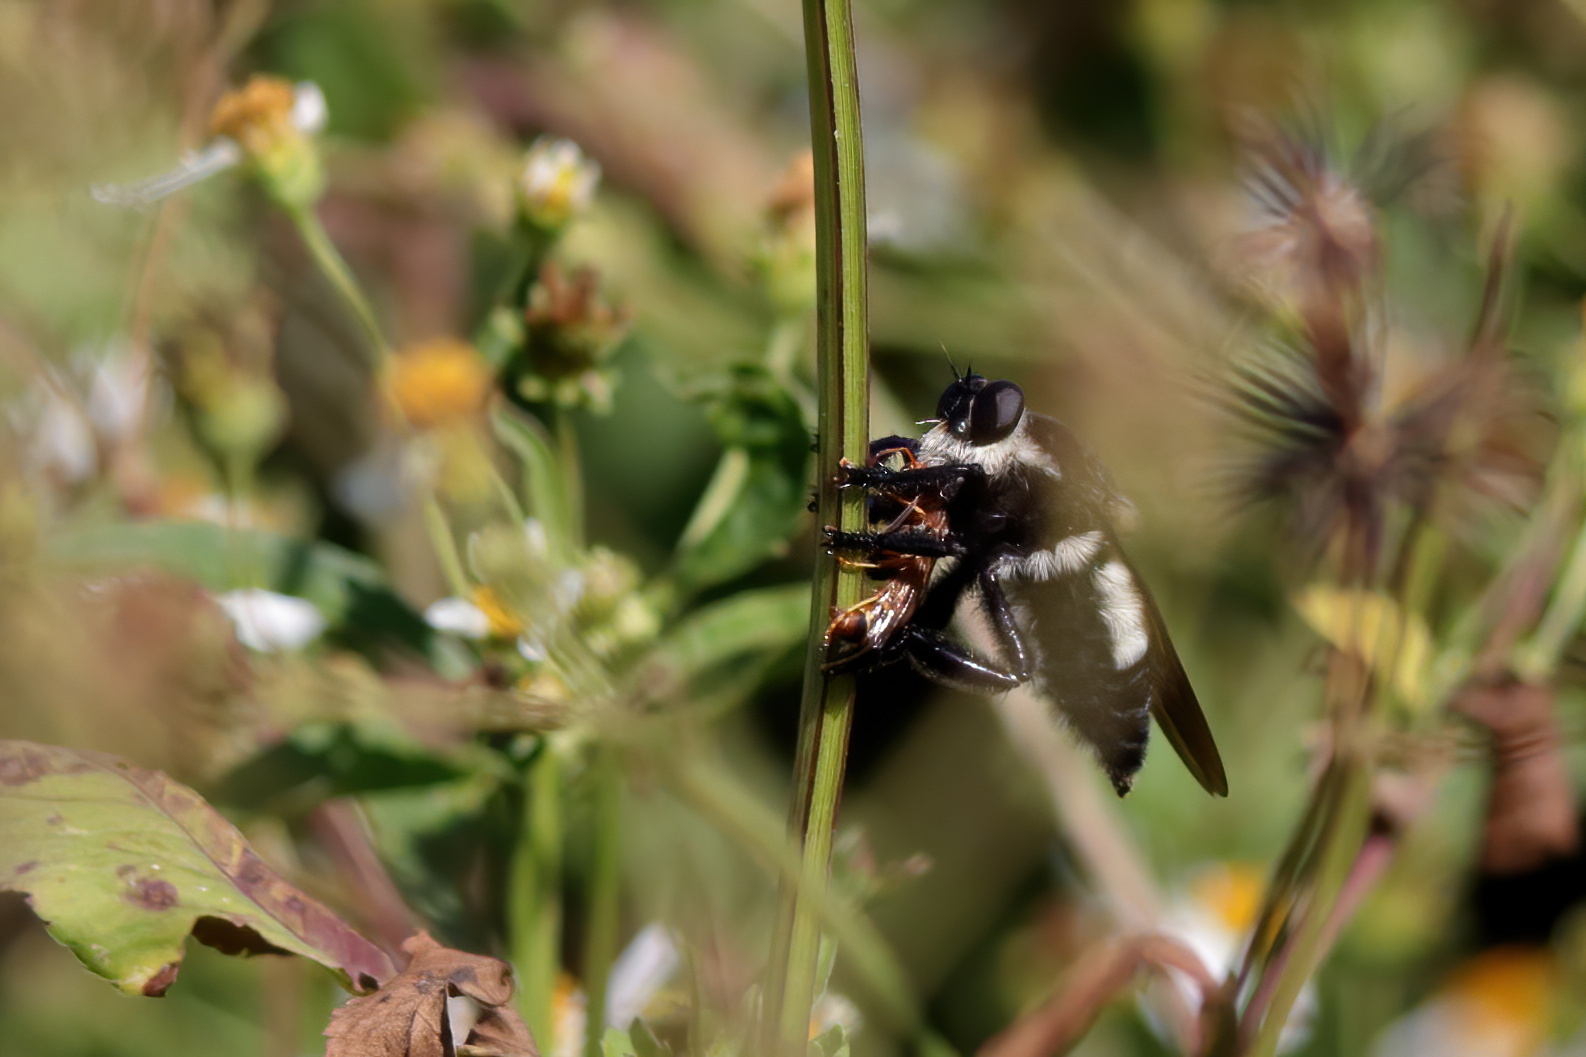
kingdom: Animalia
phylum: Arthropoda
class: Insecta
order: Diptera
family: Asilidae
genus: Mallophora
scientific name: Mallophora bomboides
